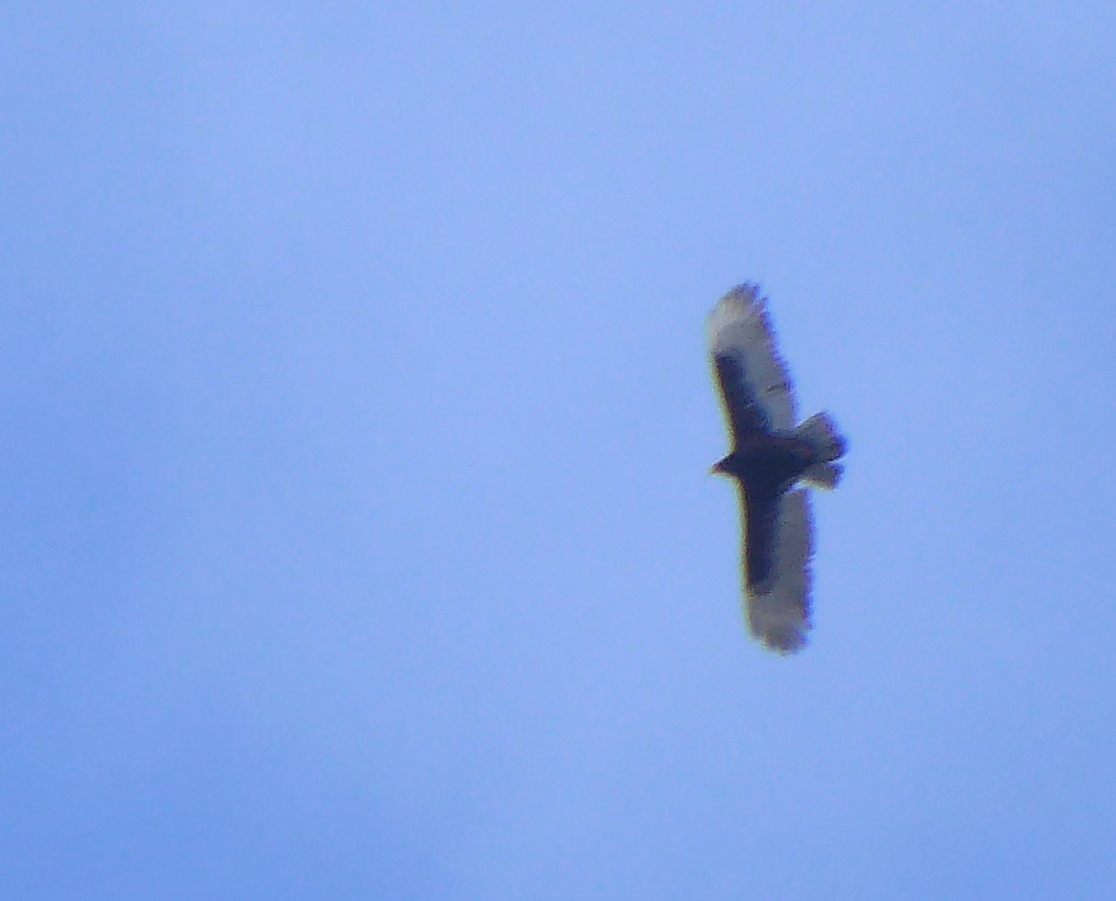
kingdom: Animalia
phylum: Chordata
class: Aves
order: Accipitriformes
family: Cathartidae
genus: Cathartes
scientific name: Cathartes aura
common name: Turkey vulture
